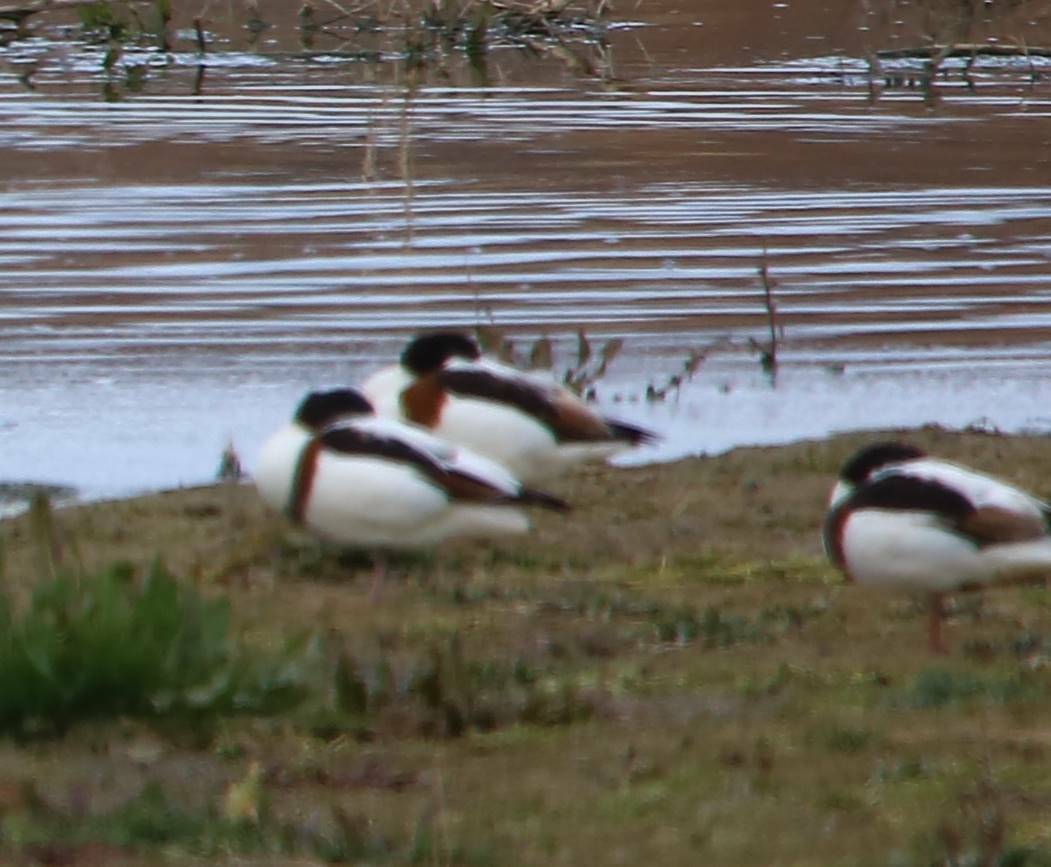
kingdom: Animalia
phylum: Chordata
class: Aves
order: Anseriformes
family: Anatidae
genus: Tadorna
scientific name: Tadorna tadorna
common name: Common shelduck
